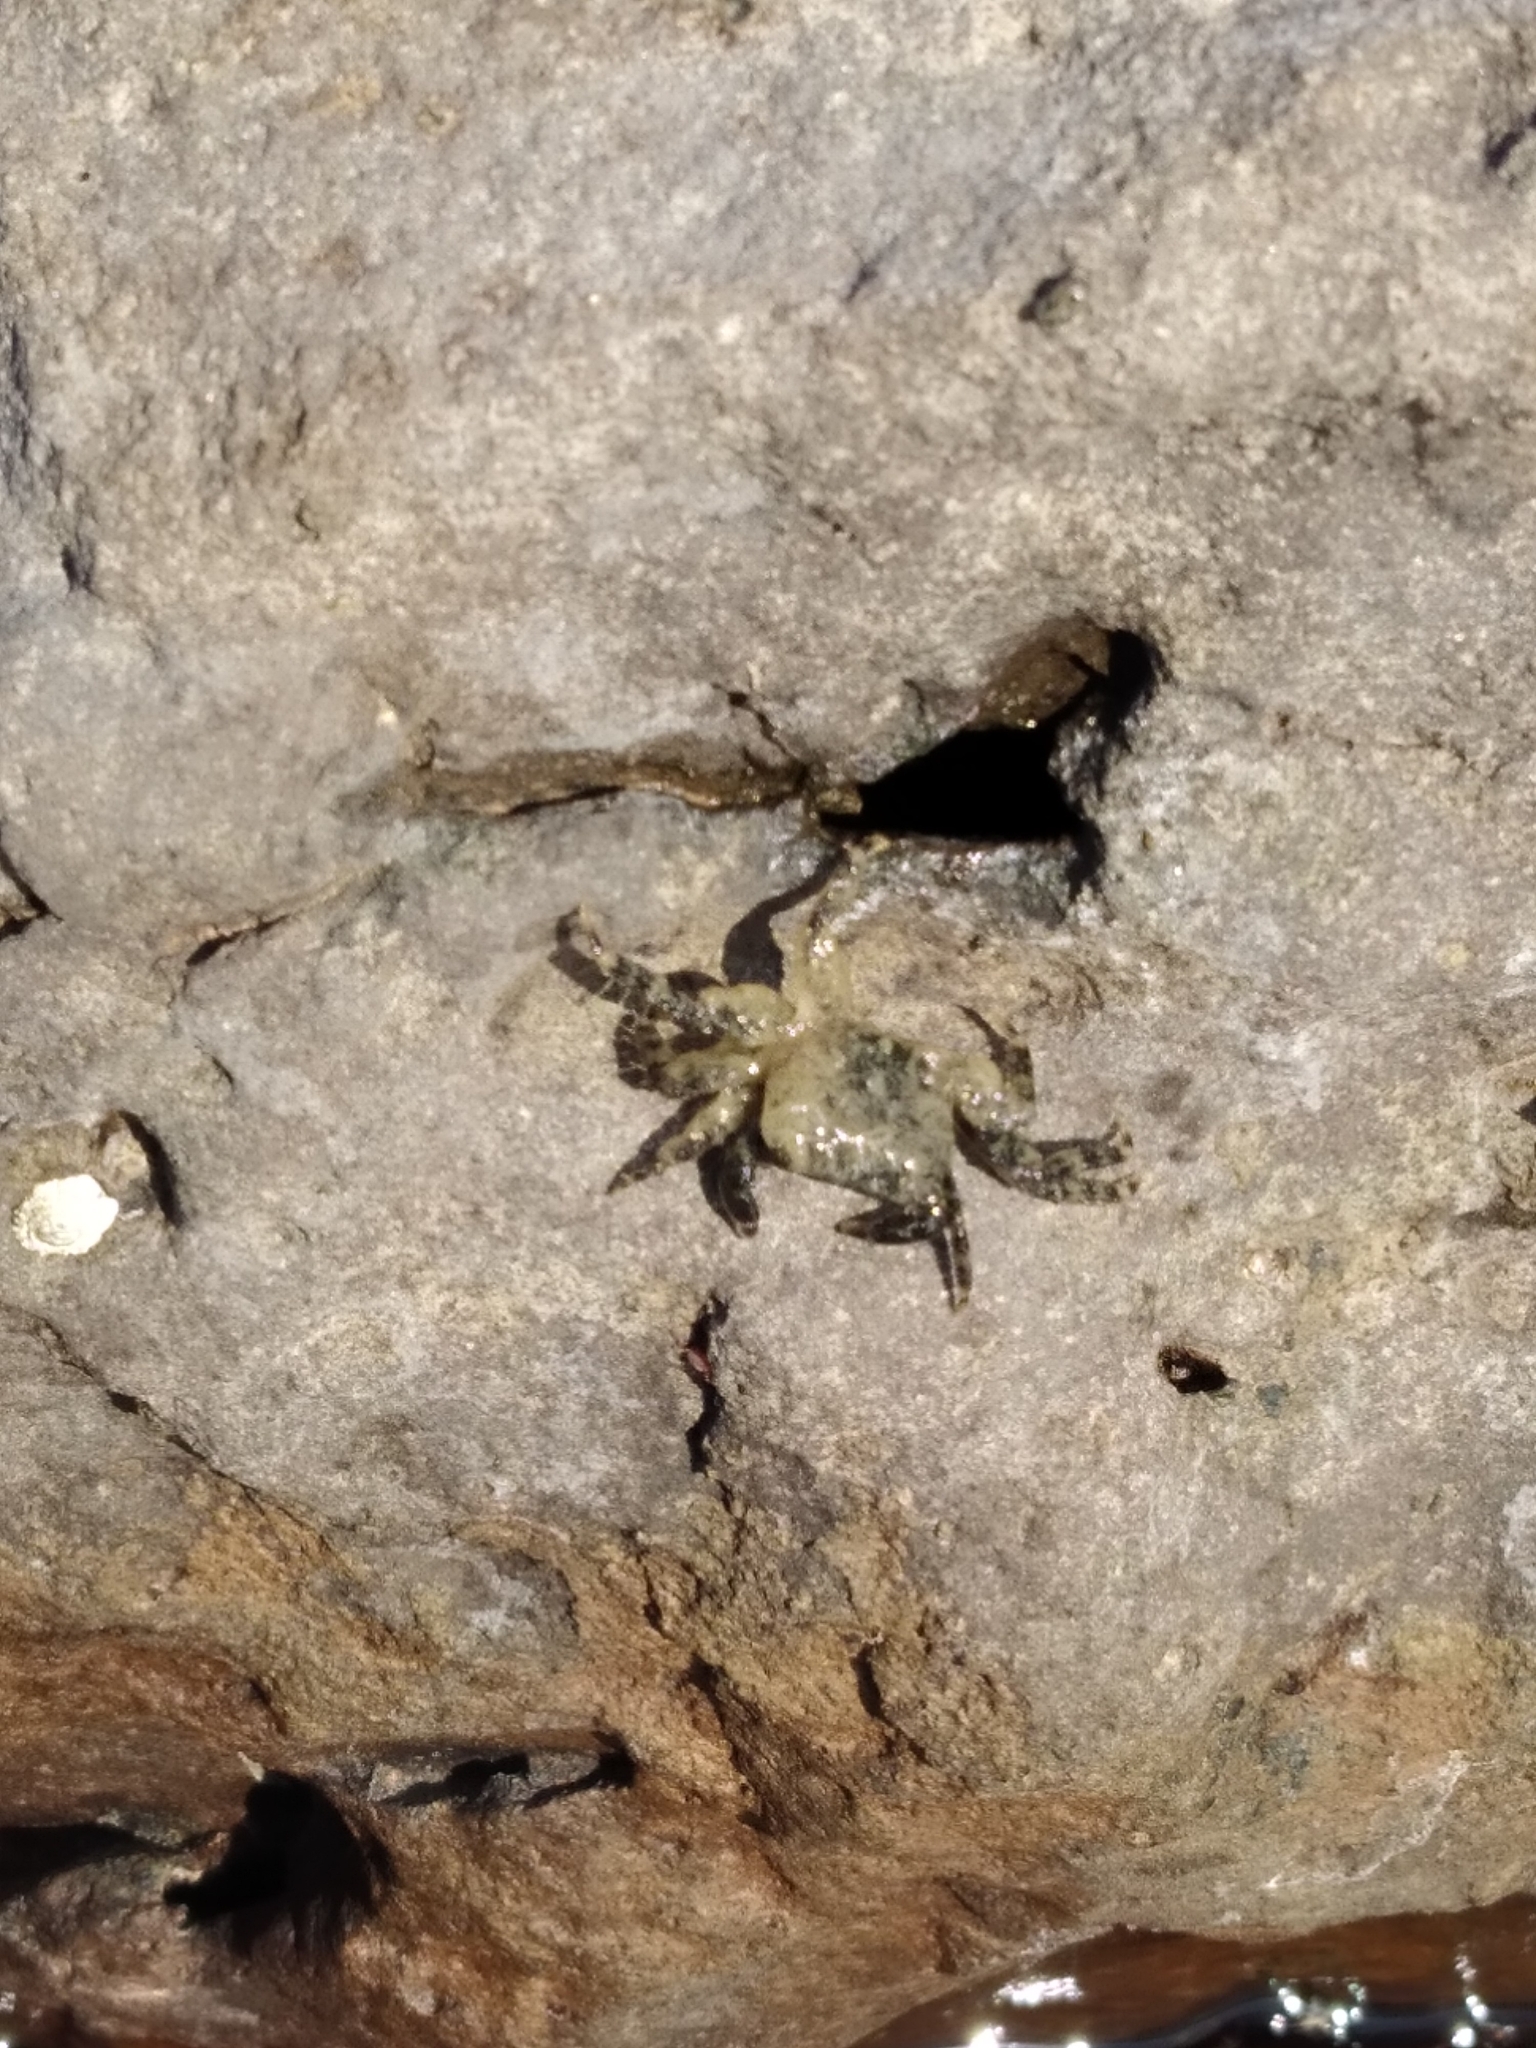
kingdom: Animalia
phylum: Arthropoda
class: Malacostraca
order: Decapoda
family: Grapsidae
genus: Pachygrapsus
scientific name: Pachygrapsus marmoratus
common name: Marbled rock crab
